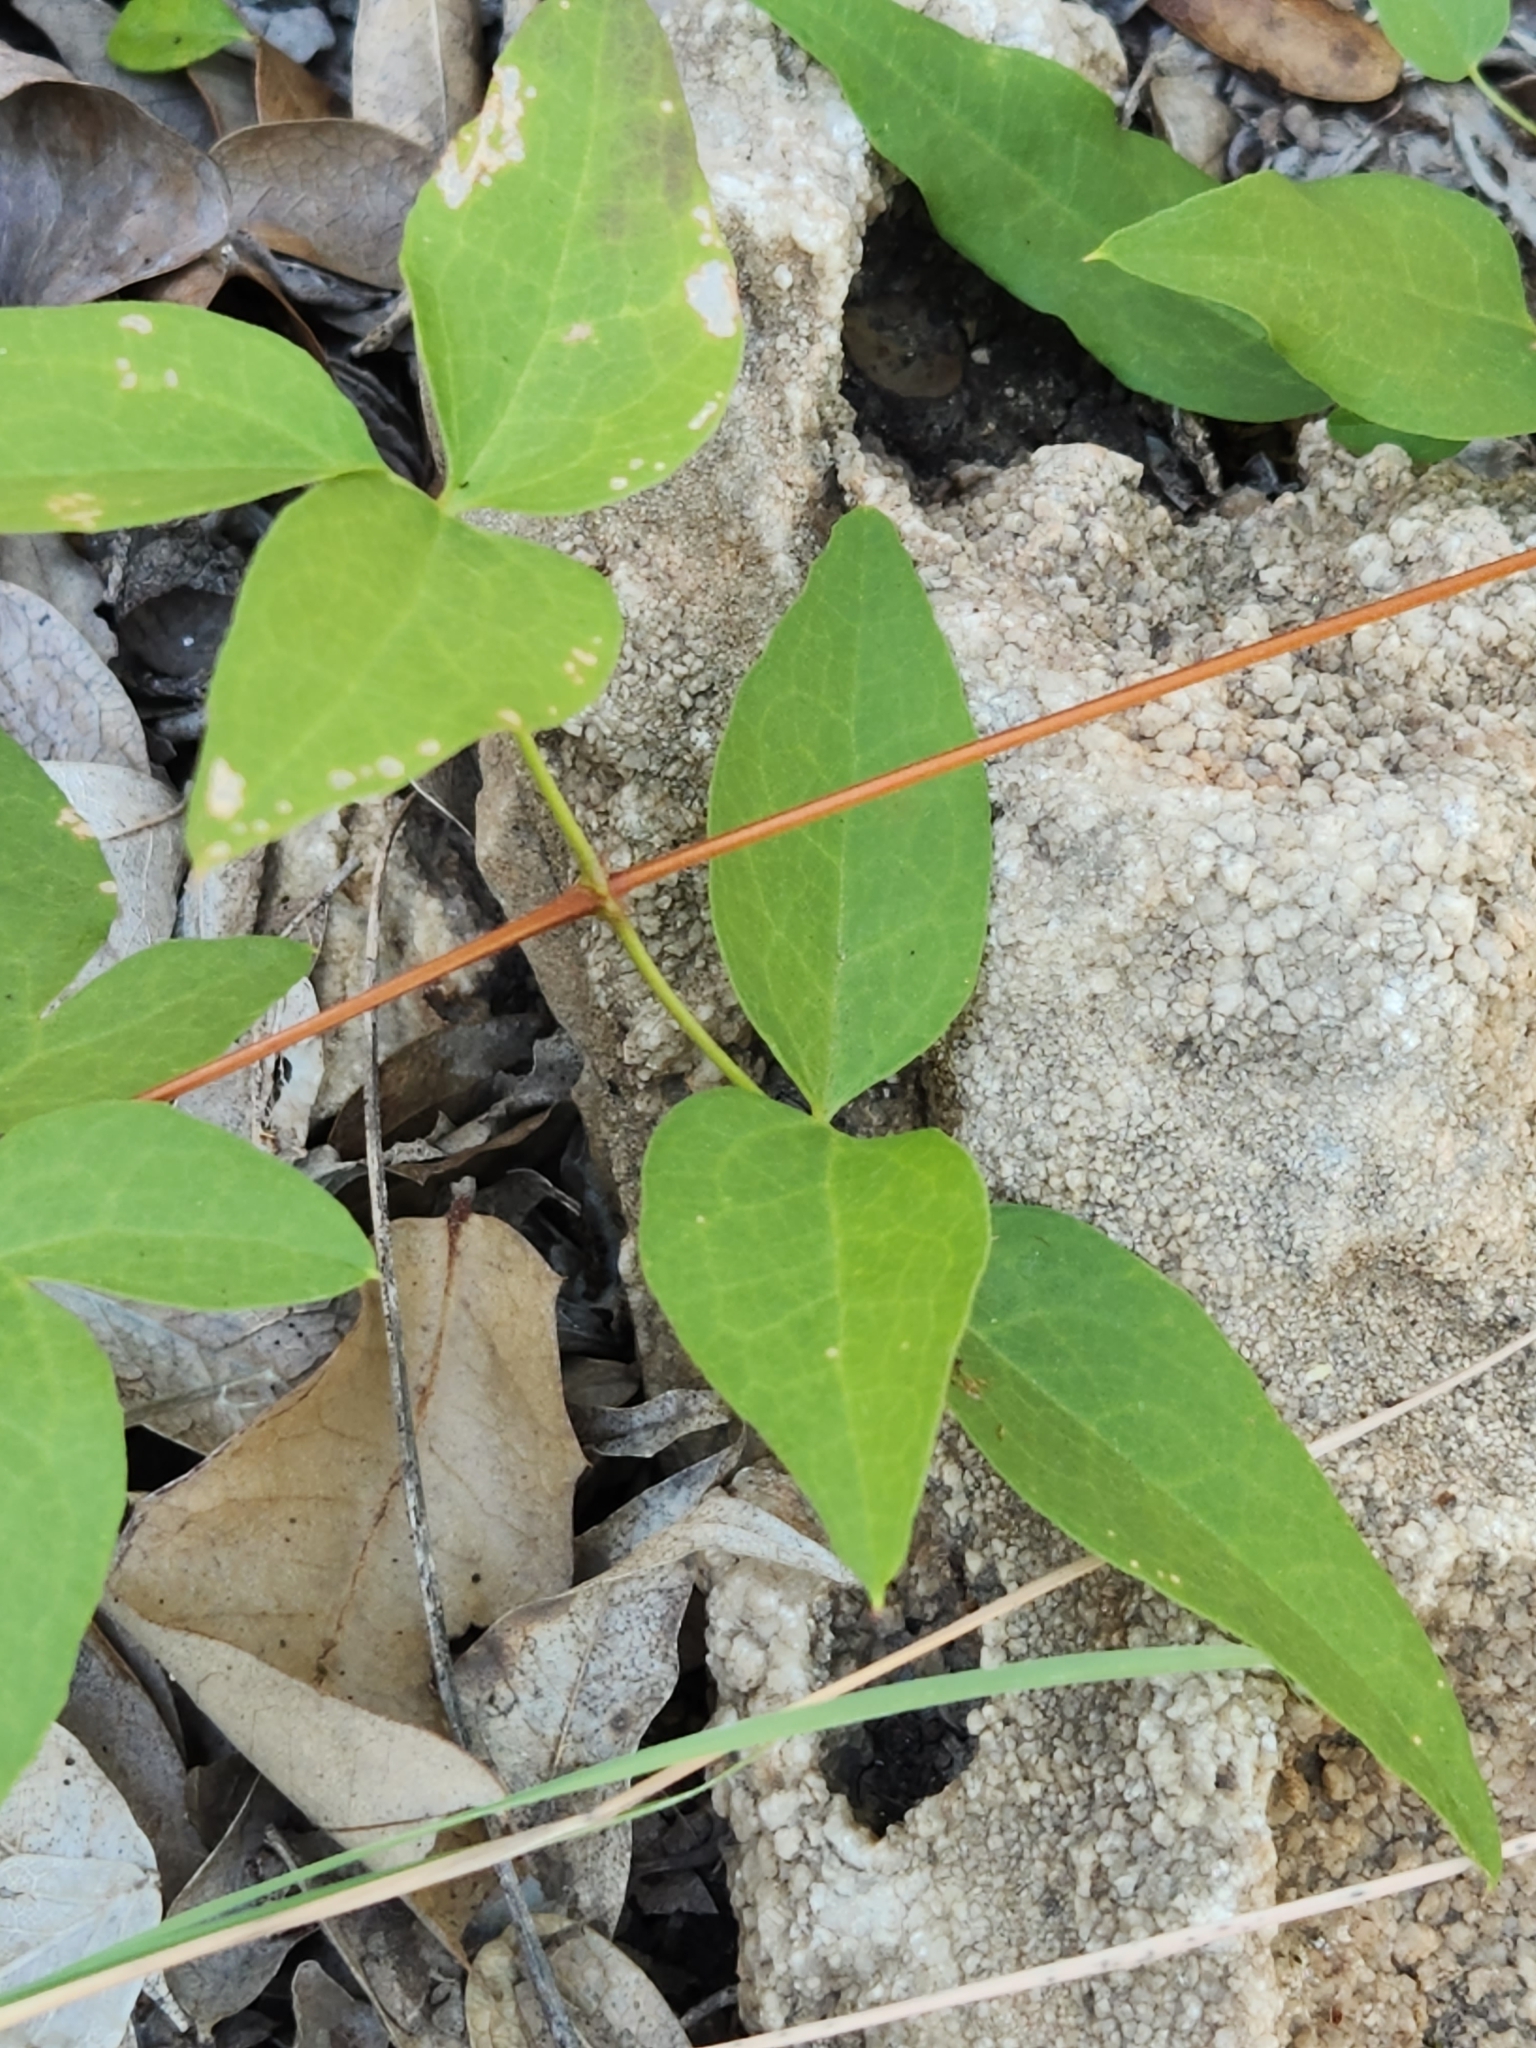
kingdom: Plantae
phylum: Tracheophyta
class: Magnoliopsida
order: Ranunculales
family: Ranunculaceae
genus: Clematis
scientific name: Clematis pitcheri
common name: Bellflower clematis
